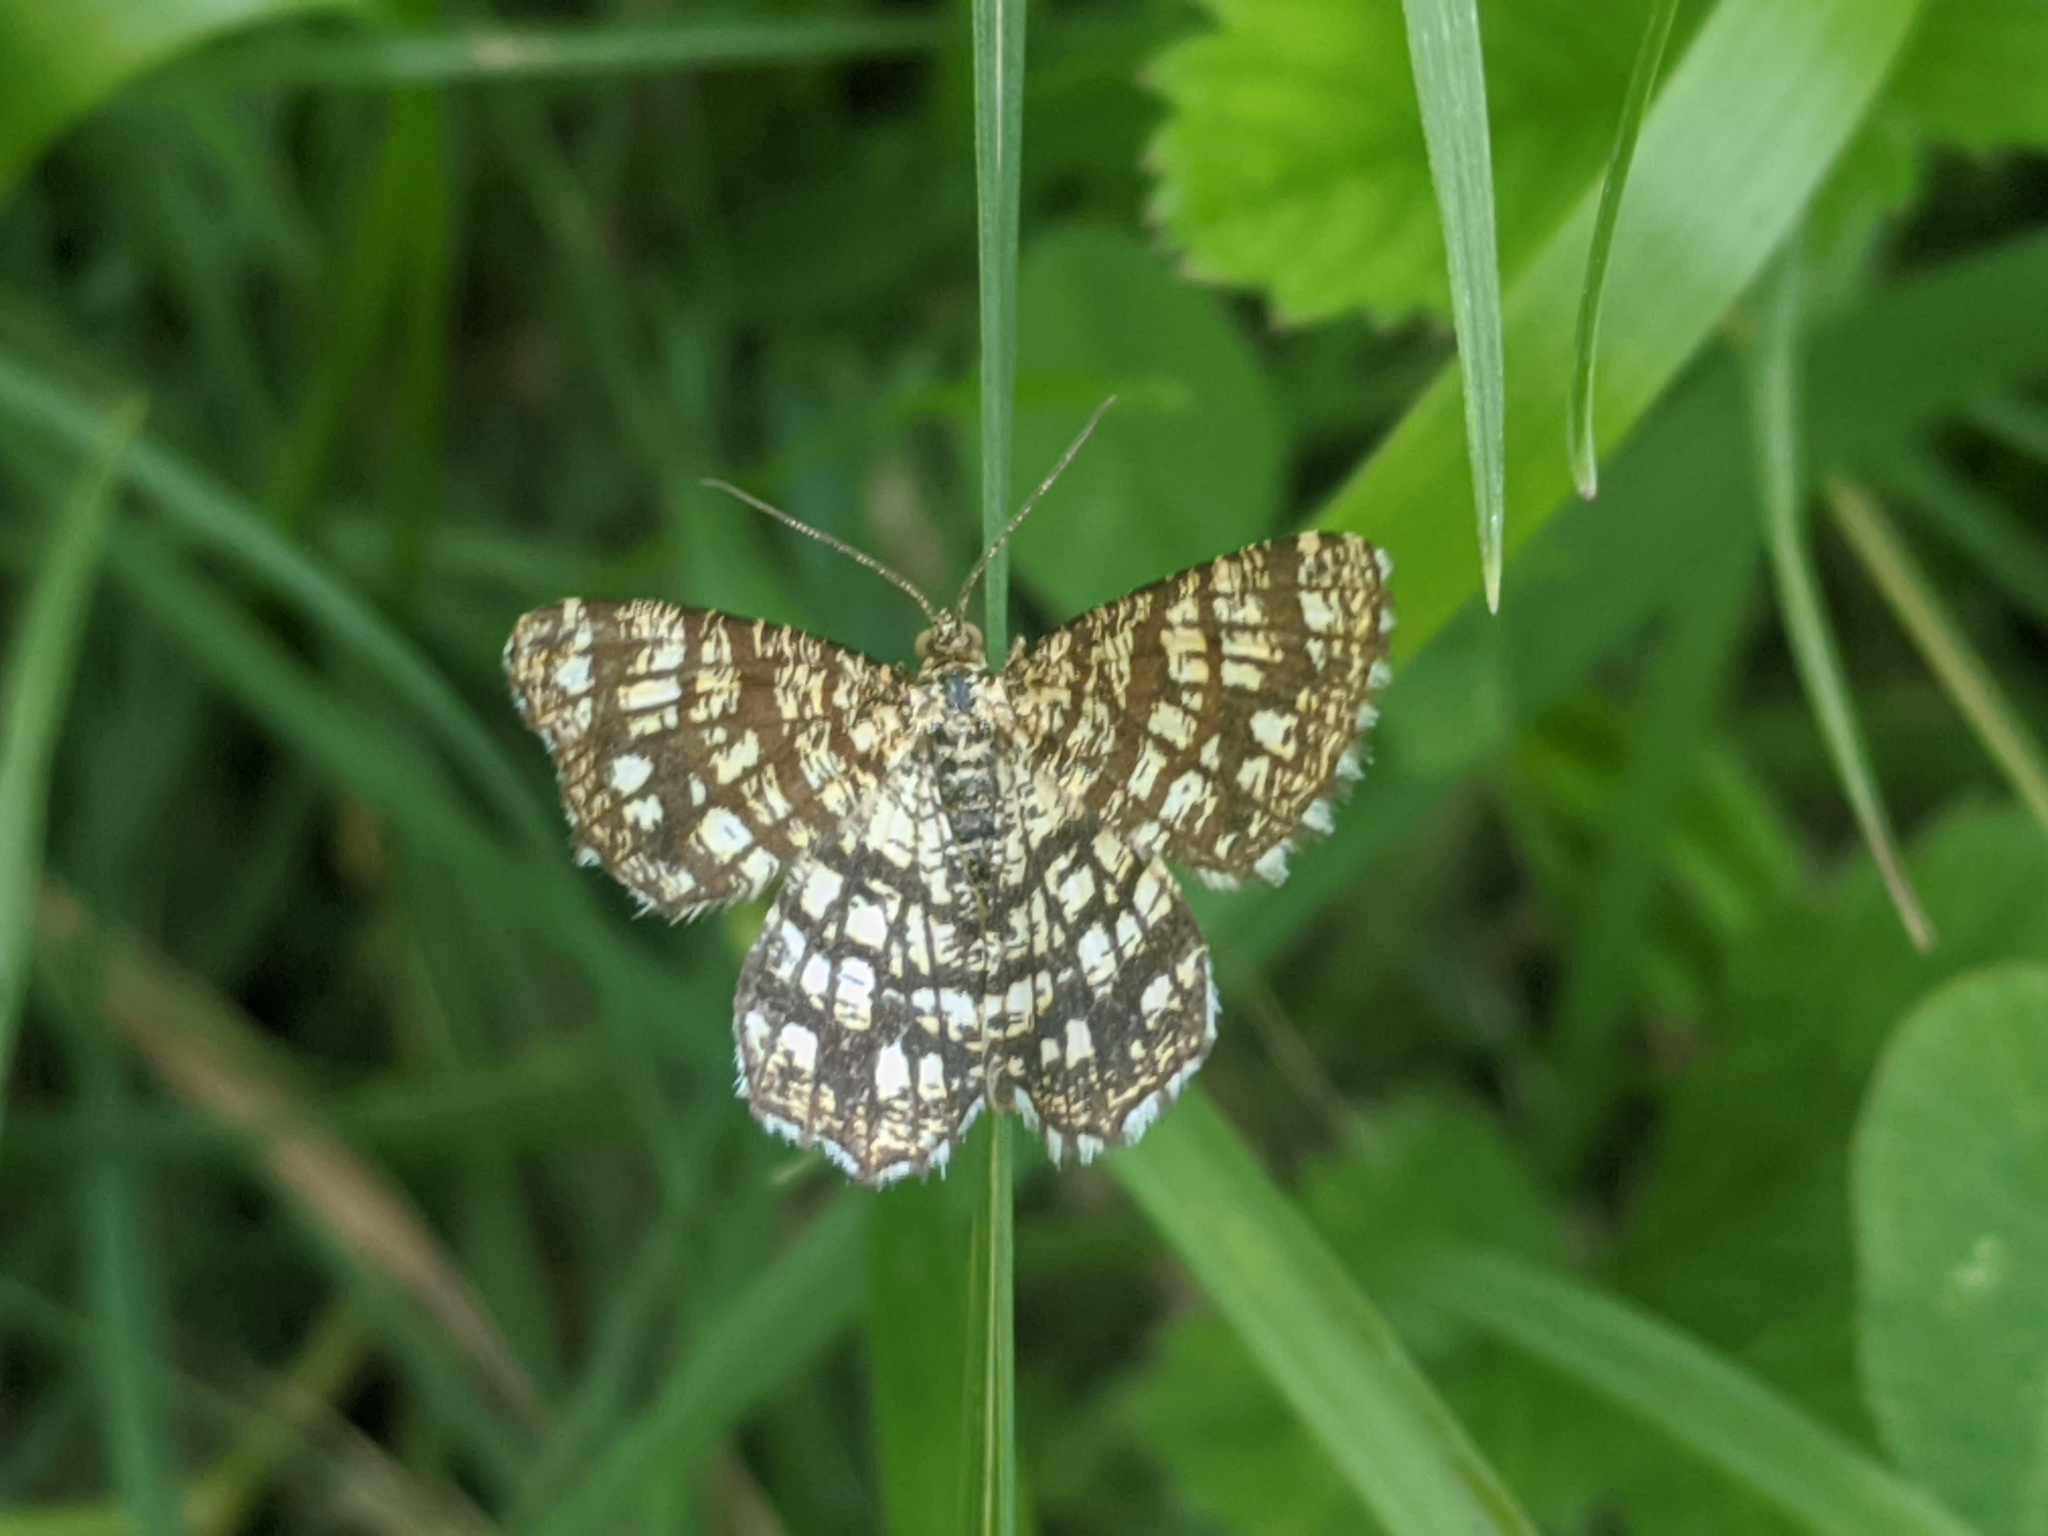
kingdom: Animalia
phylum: Arthropoda
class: Insecta
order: Lepidoptera
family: Geometridae
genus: Chiasmia
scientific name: Chiasmia clathrata
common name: Latticed heath
